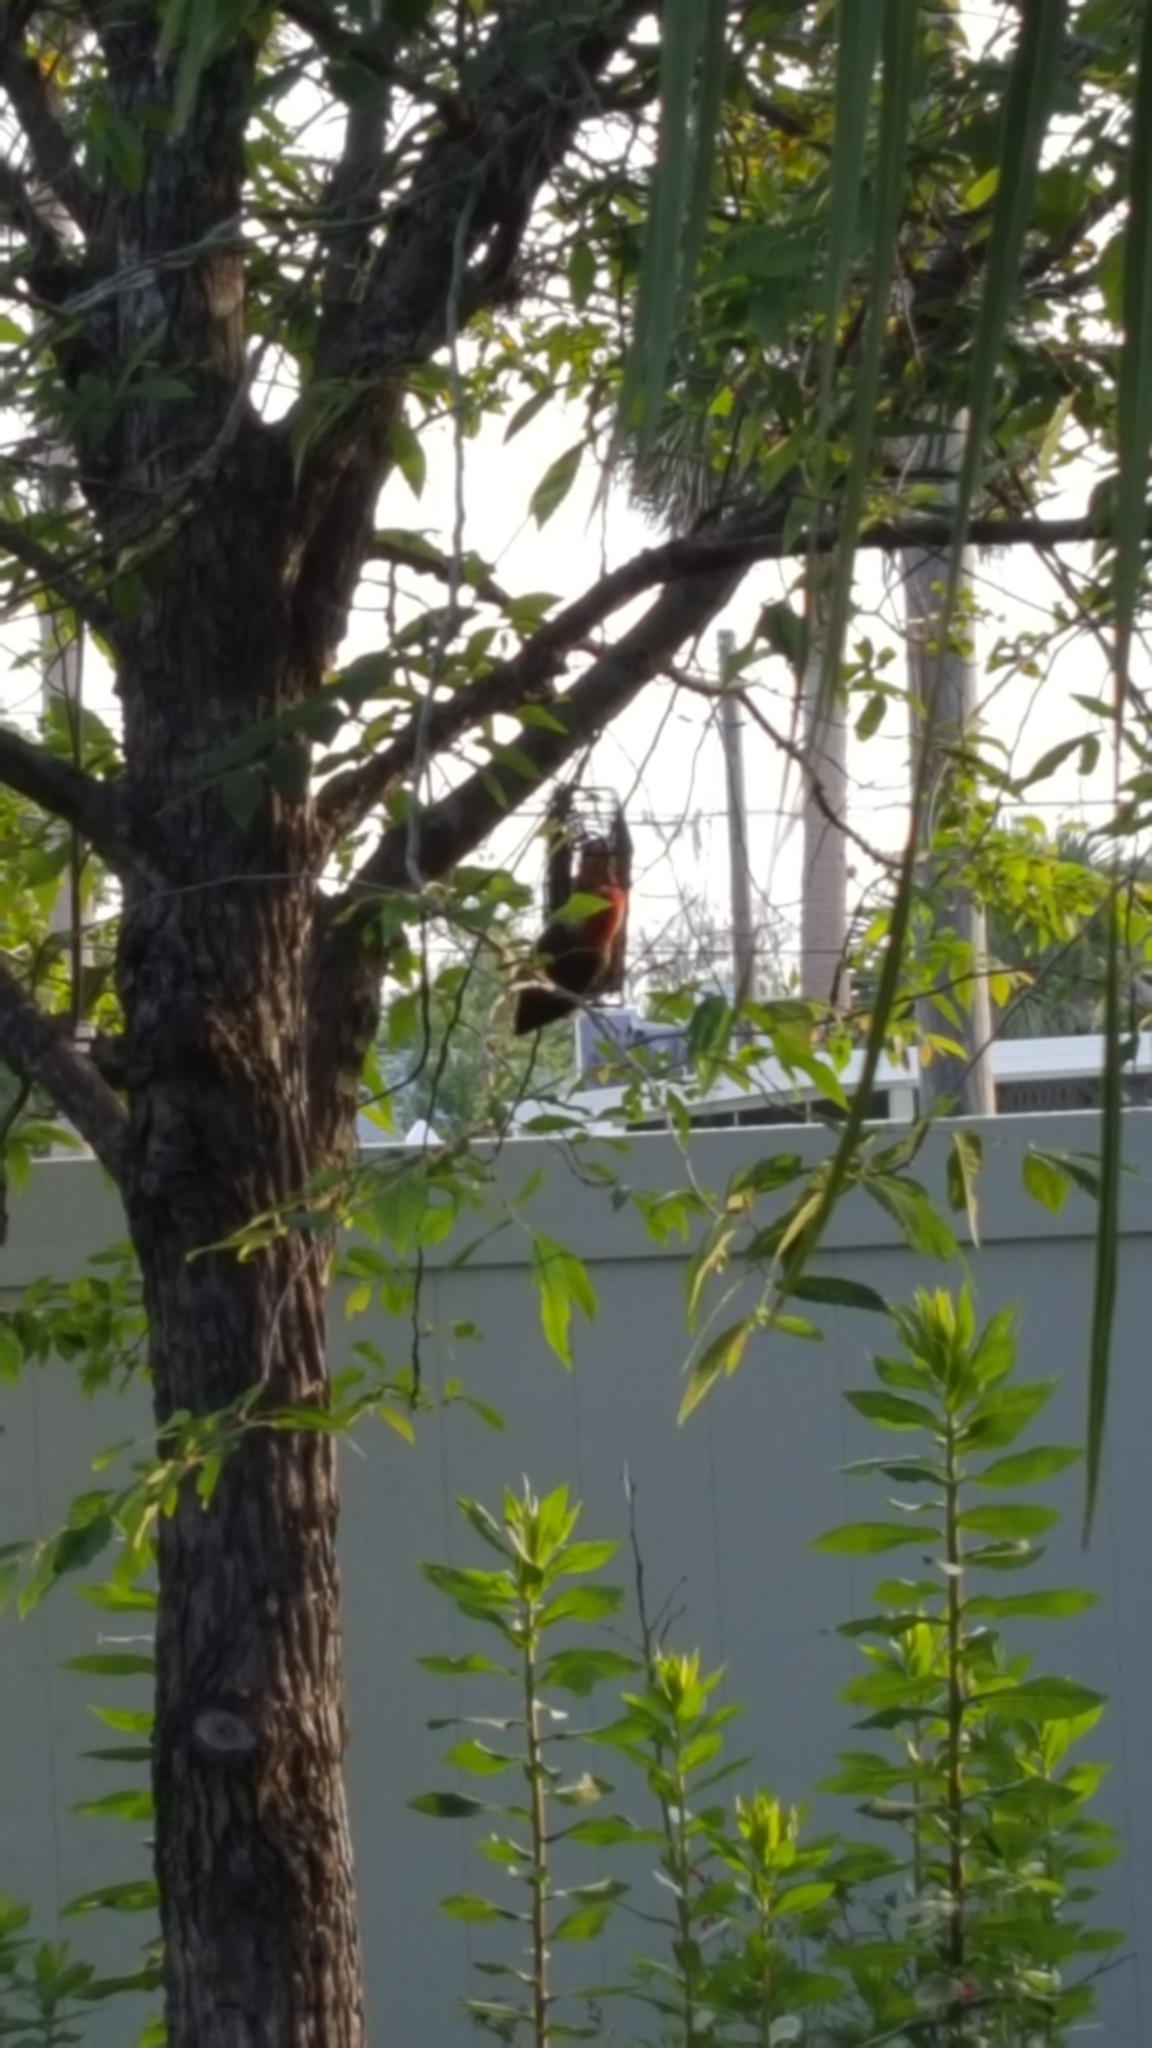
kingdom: Animalia
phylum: Chordata
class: Aves
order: Piciformes
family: Picidae
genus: Melanerpes
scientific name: Melanerpes carolinus
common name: Red-bellied woodpecker
